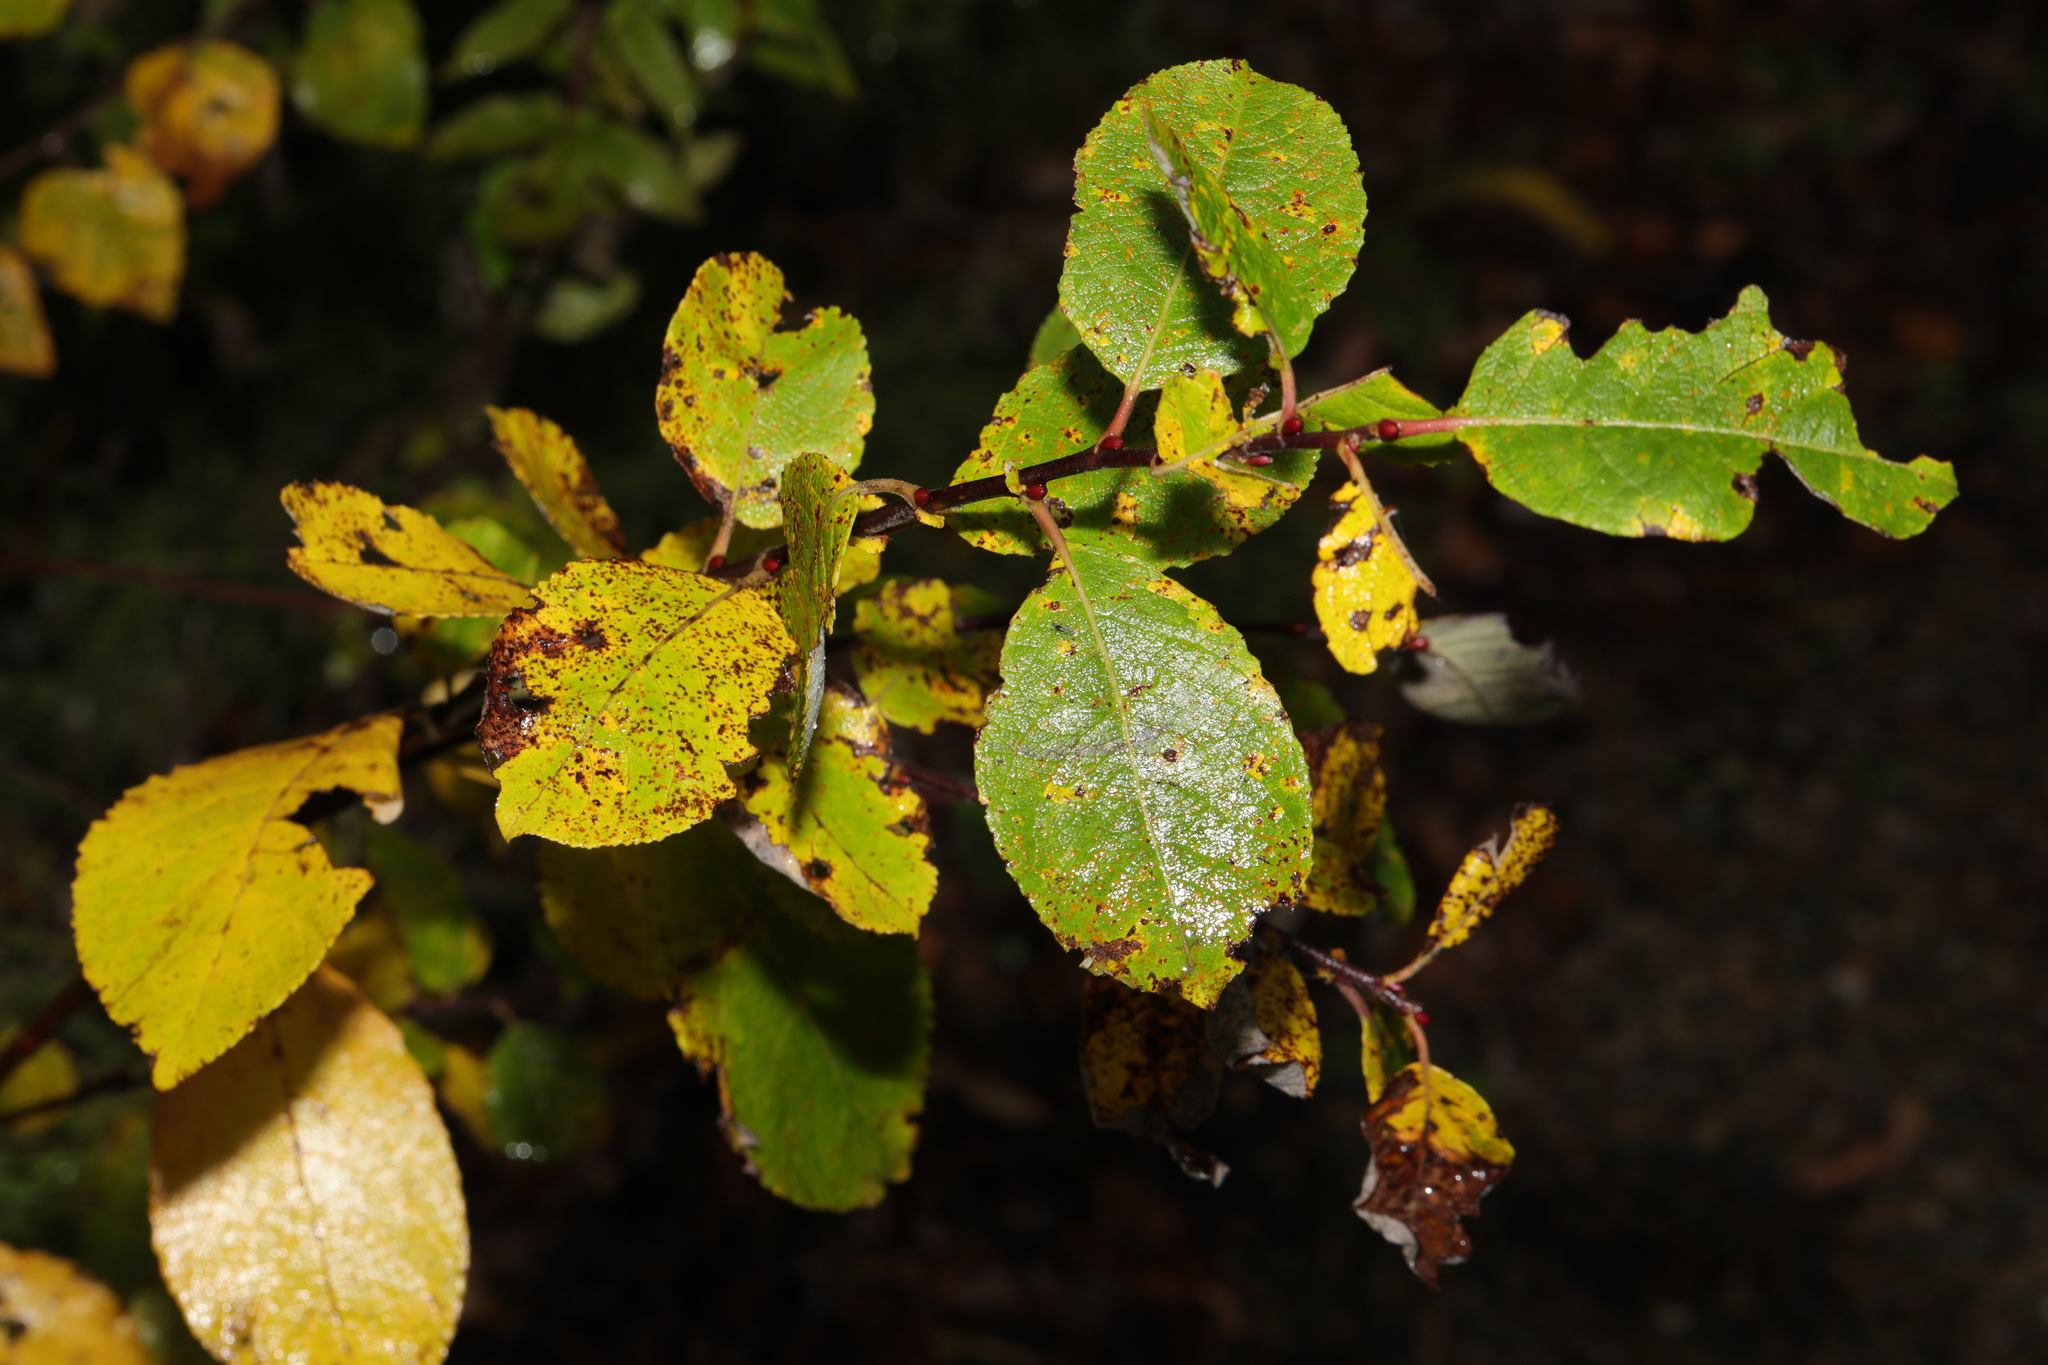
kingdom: Plantae
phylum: Tracheophyta
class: Magnoliopsida
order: Malpighiales
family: Salicaceae
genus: Salix
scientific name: Salix caprea
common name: Goat willow
